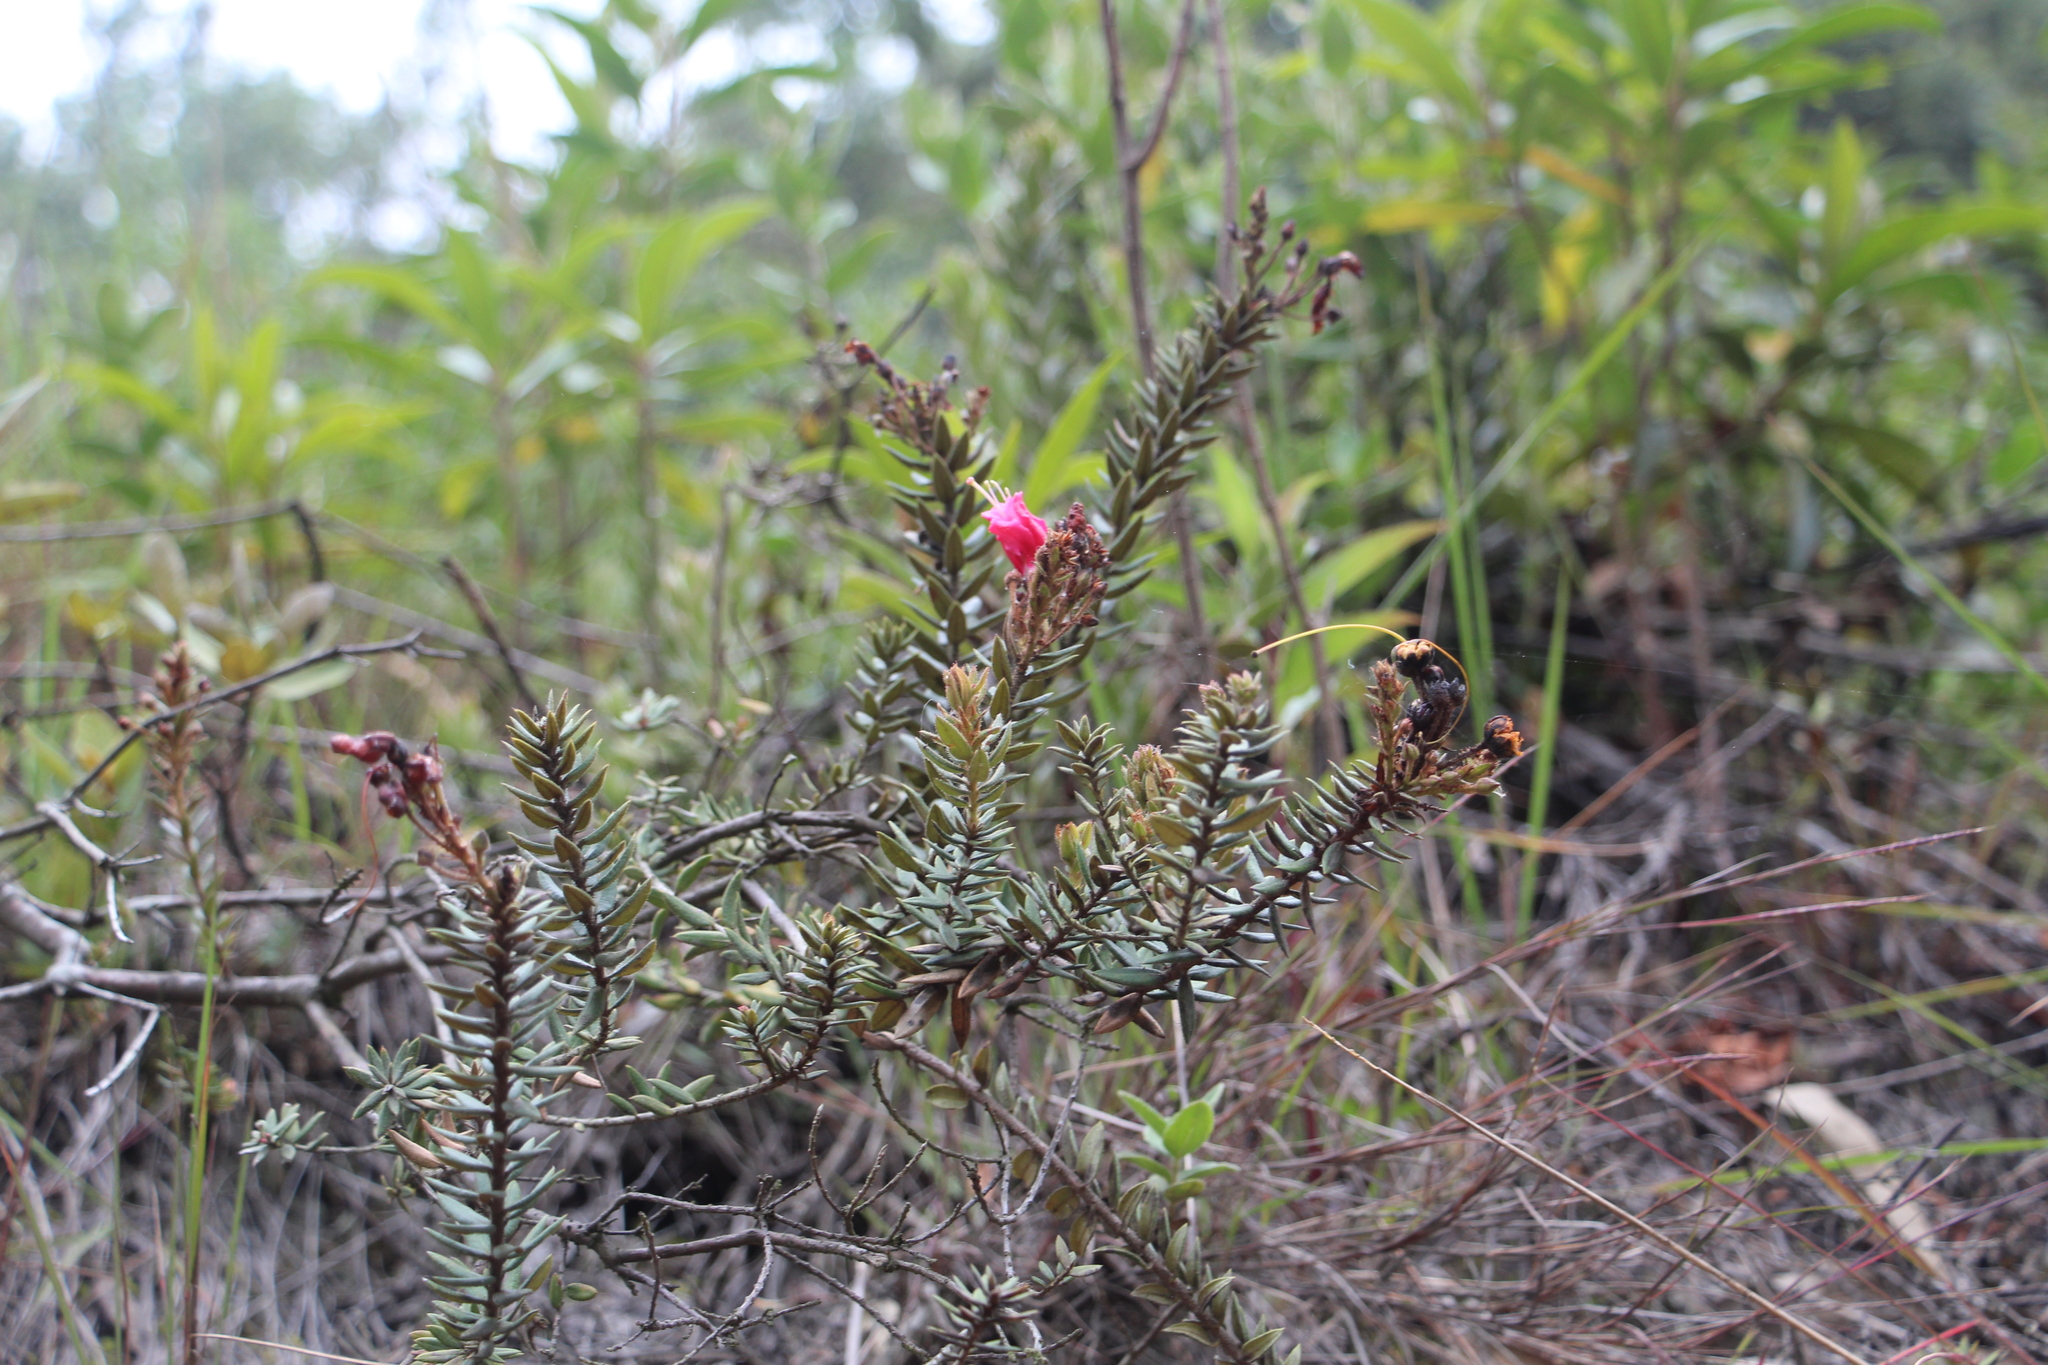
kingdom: Plantae
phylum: Tracheophyta
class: Magnoliopsida
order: Ericales
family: Ericaceae
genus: Bejaria
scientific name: Bejaria resinosa
